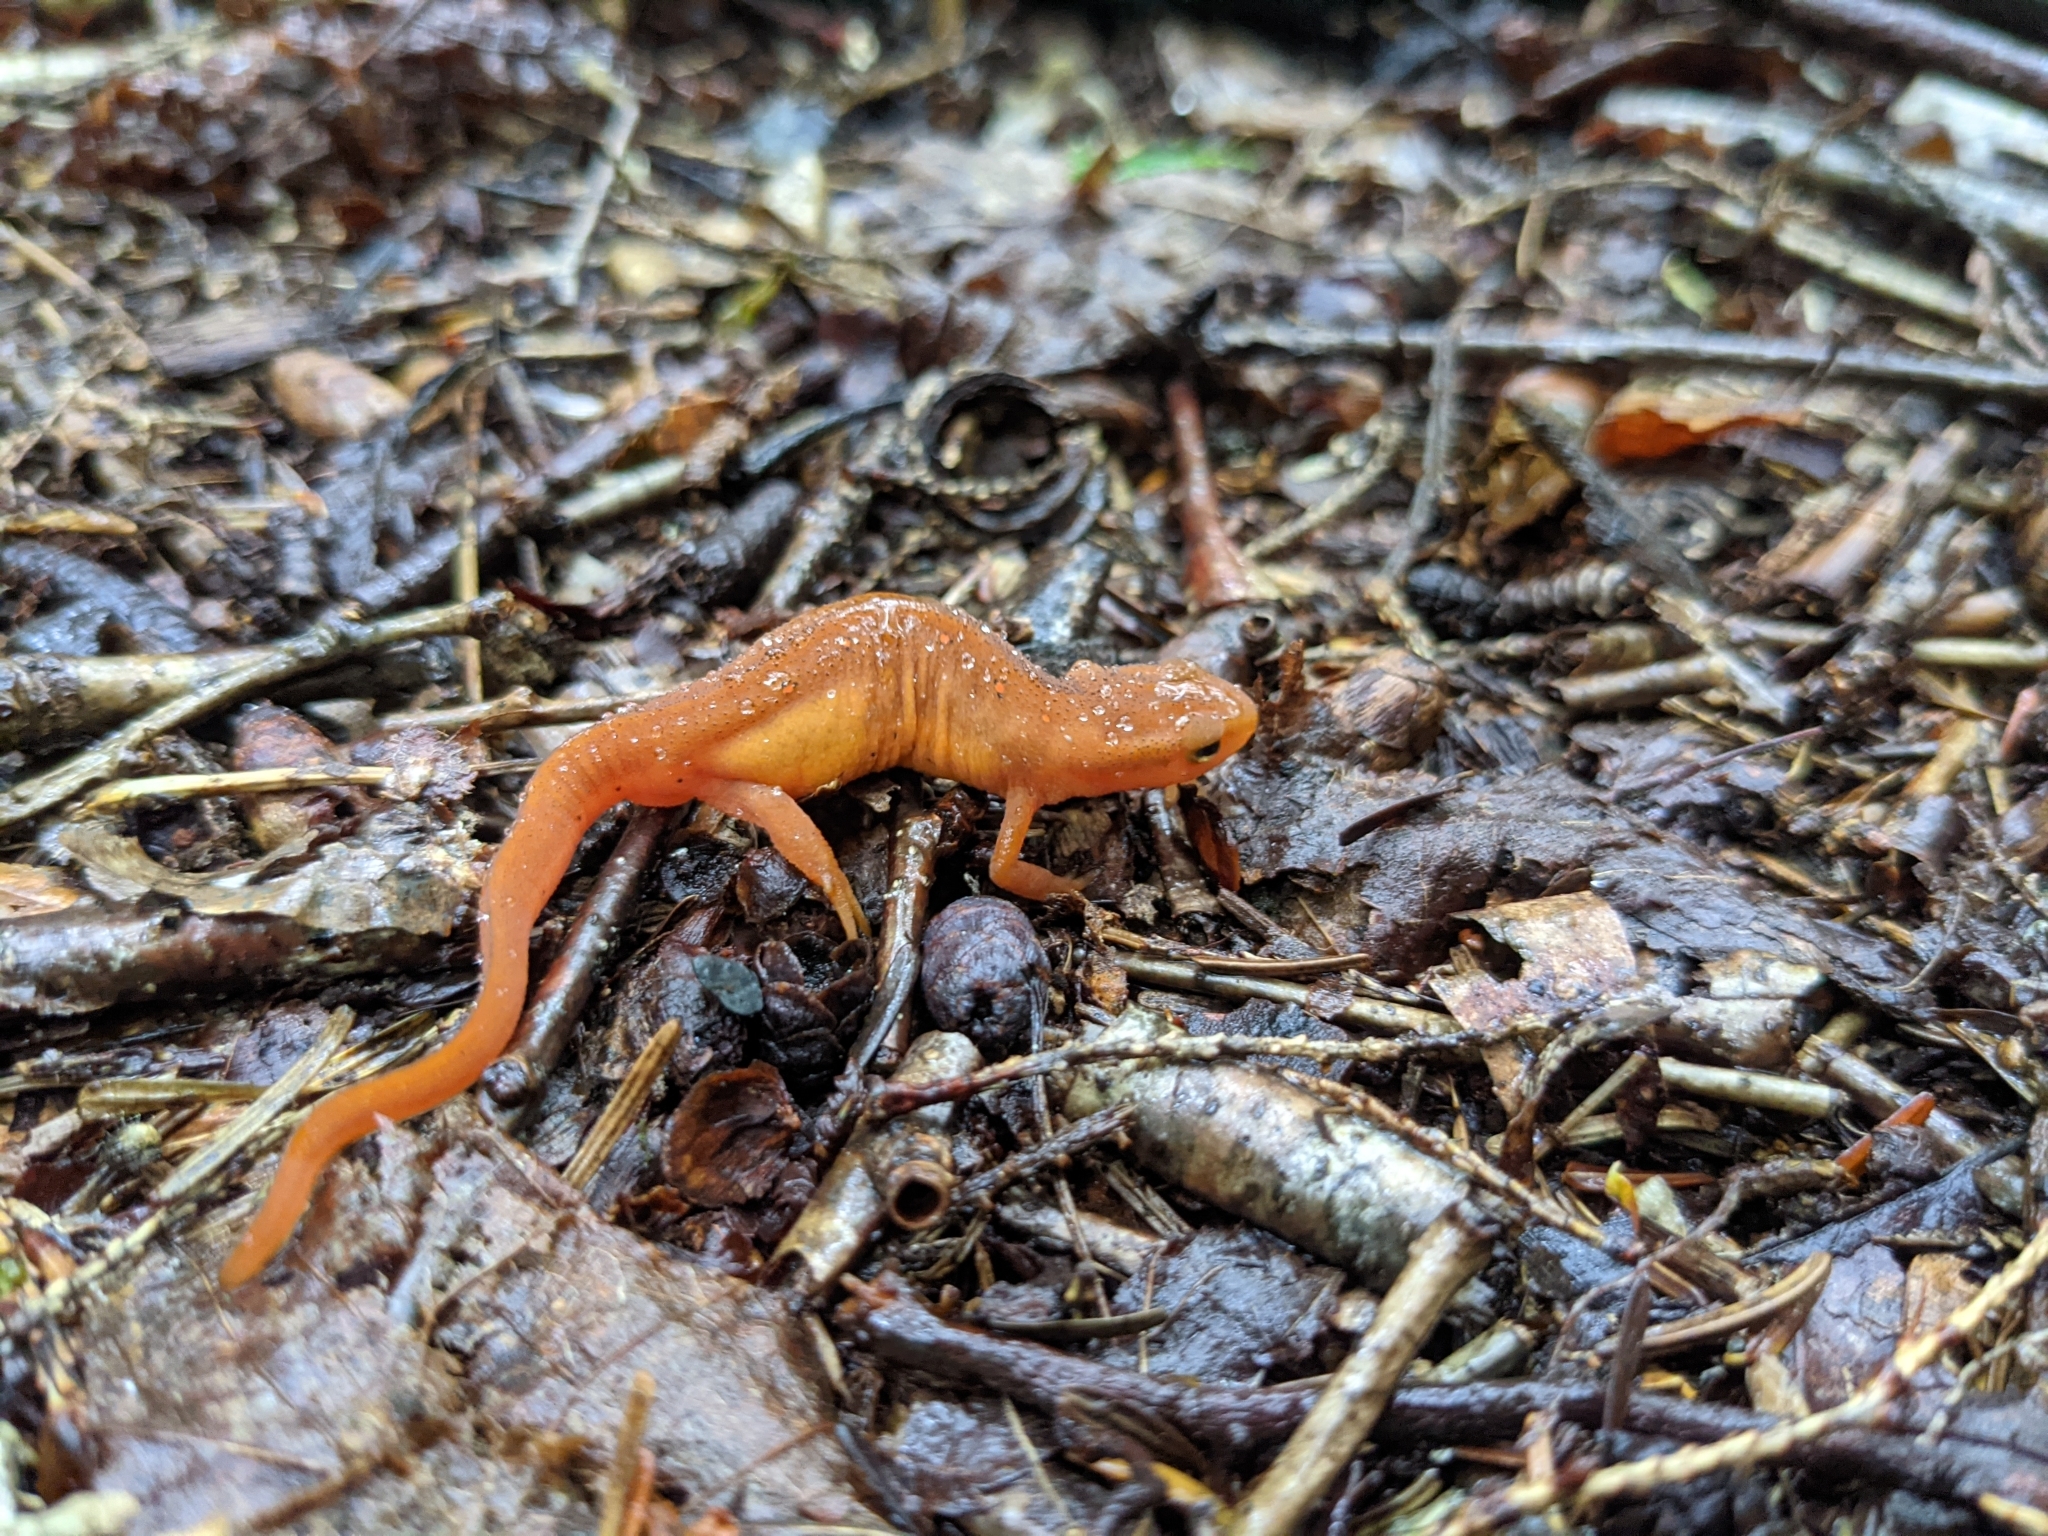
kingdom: Animalia
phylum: Chordata
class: Amphibia
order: Caudata
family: Salamandridae
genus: Notophthalmus
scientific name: Notophthalmus viridescens
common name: Eastern newt
